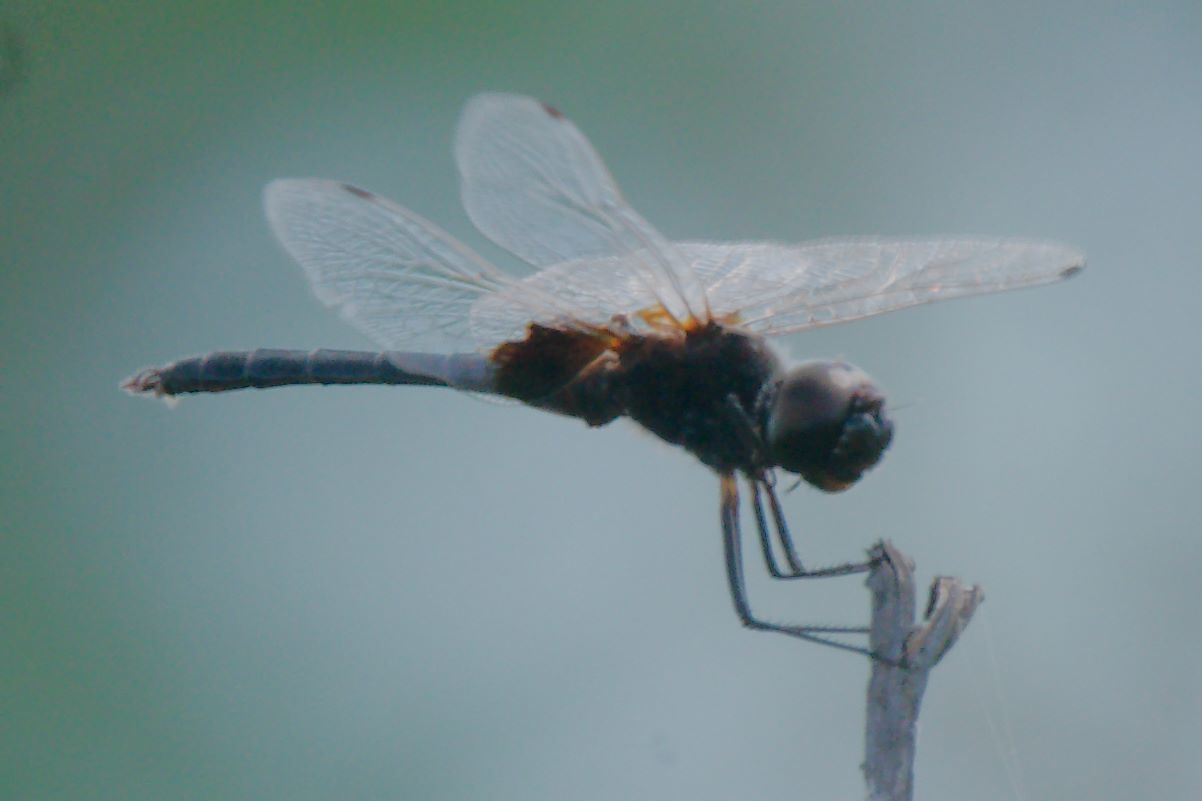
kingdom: Animalia
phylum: Arthropoda
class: Insecta
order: Odonata
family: Libellulidae
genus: Macrodiplax
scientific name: Macrodiplax balteata
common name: Marl pennant
